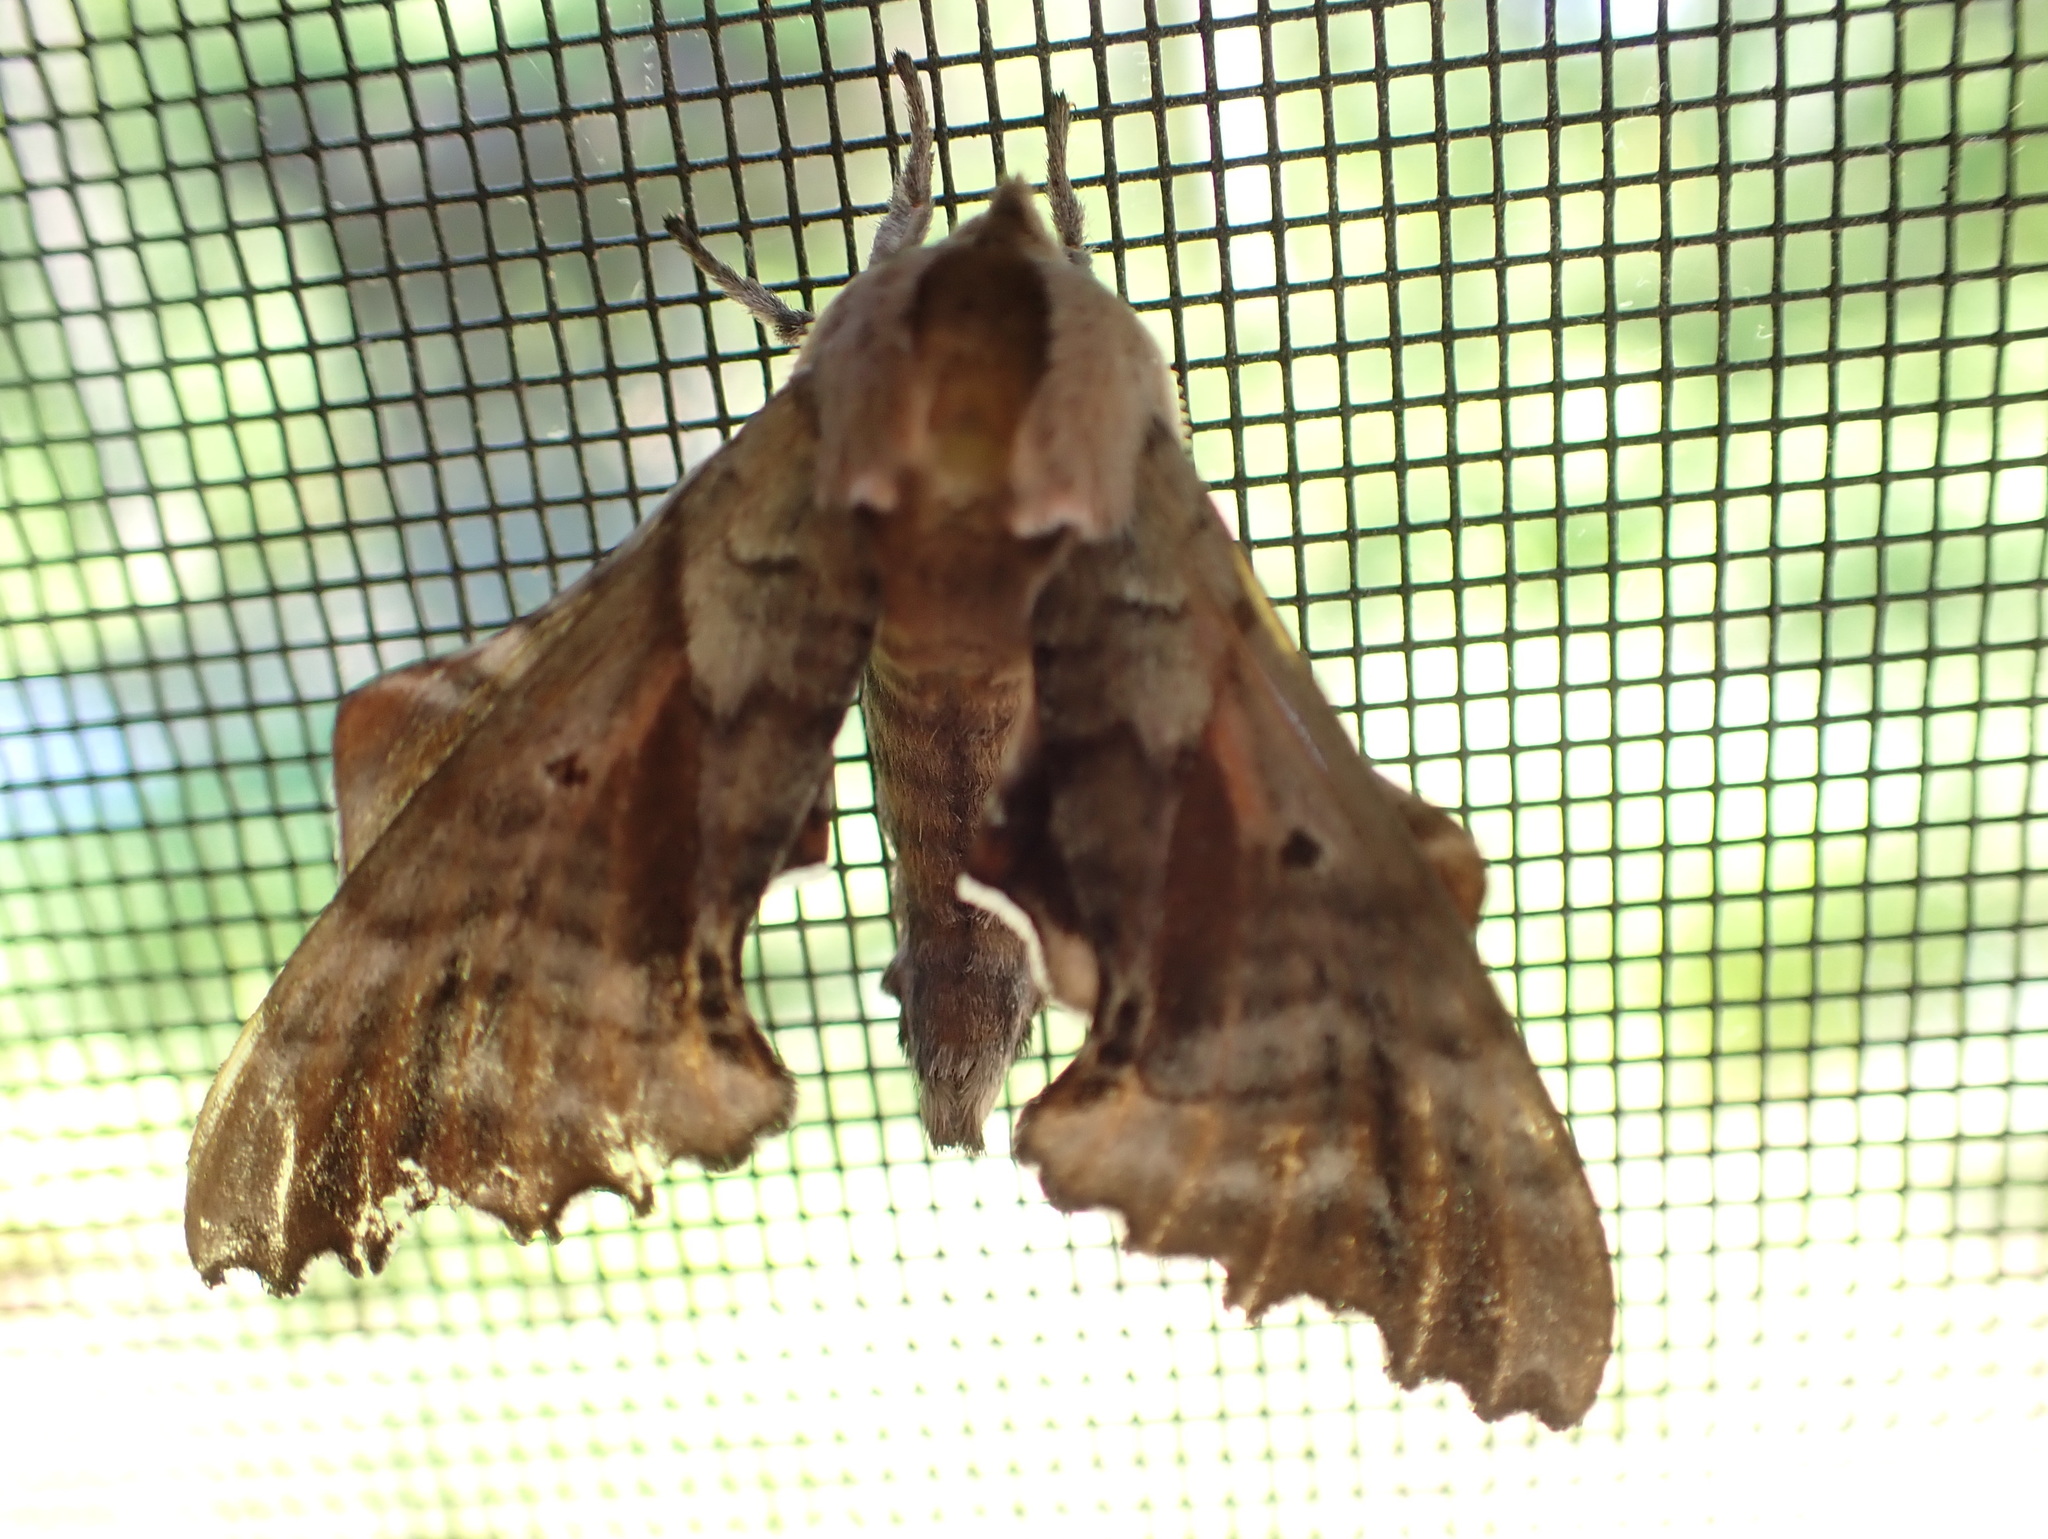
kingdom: Animalia
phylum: Arthropoda
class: Insecta
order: Lepidoptera
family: Sphingidae
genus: Paonias
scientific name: Paonias excaecata
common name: Blind-eyed sphinx
